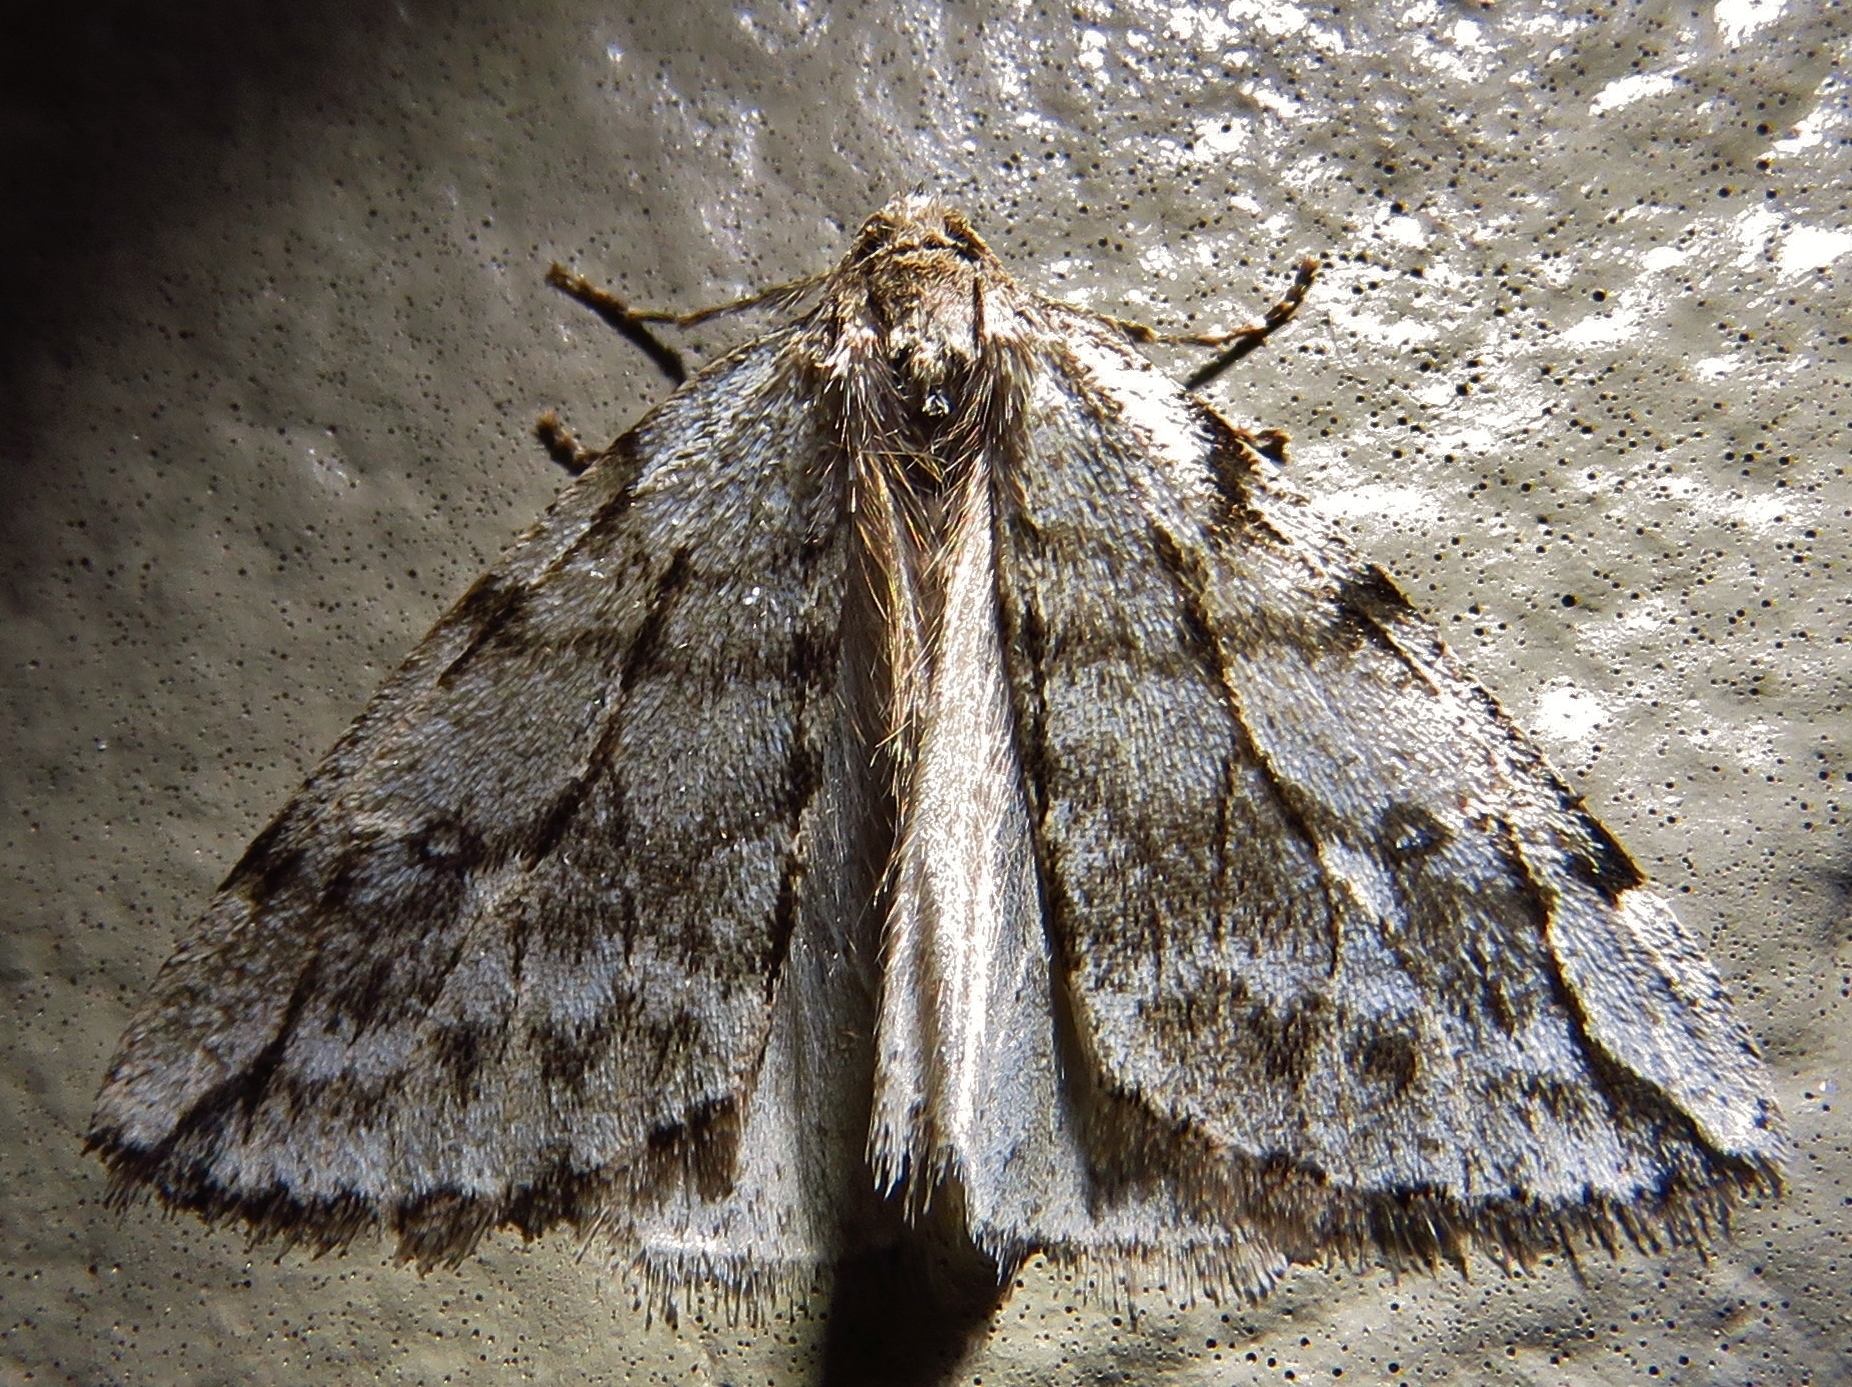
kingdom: Animalia
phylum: Arthropoda
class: Insecta
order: Lepidoptera
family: Geometridae
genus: Paleacrita
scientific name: Paleacrita vernata
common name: Spring cankerworm
